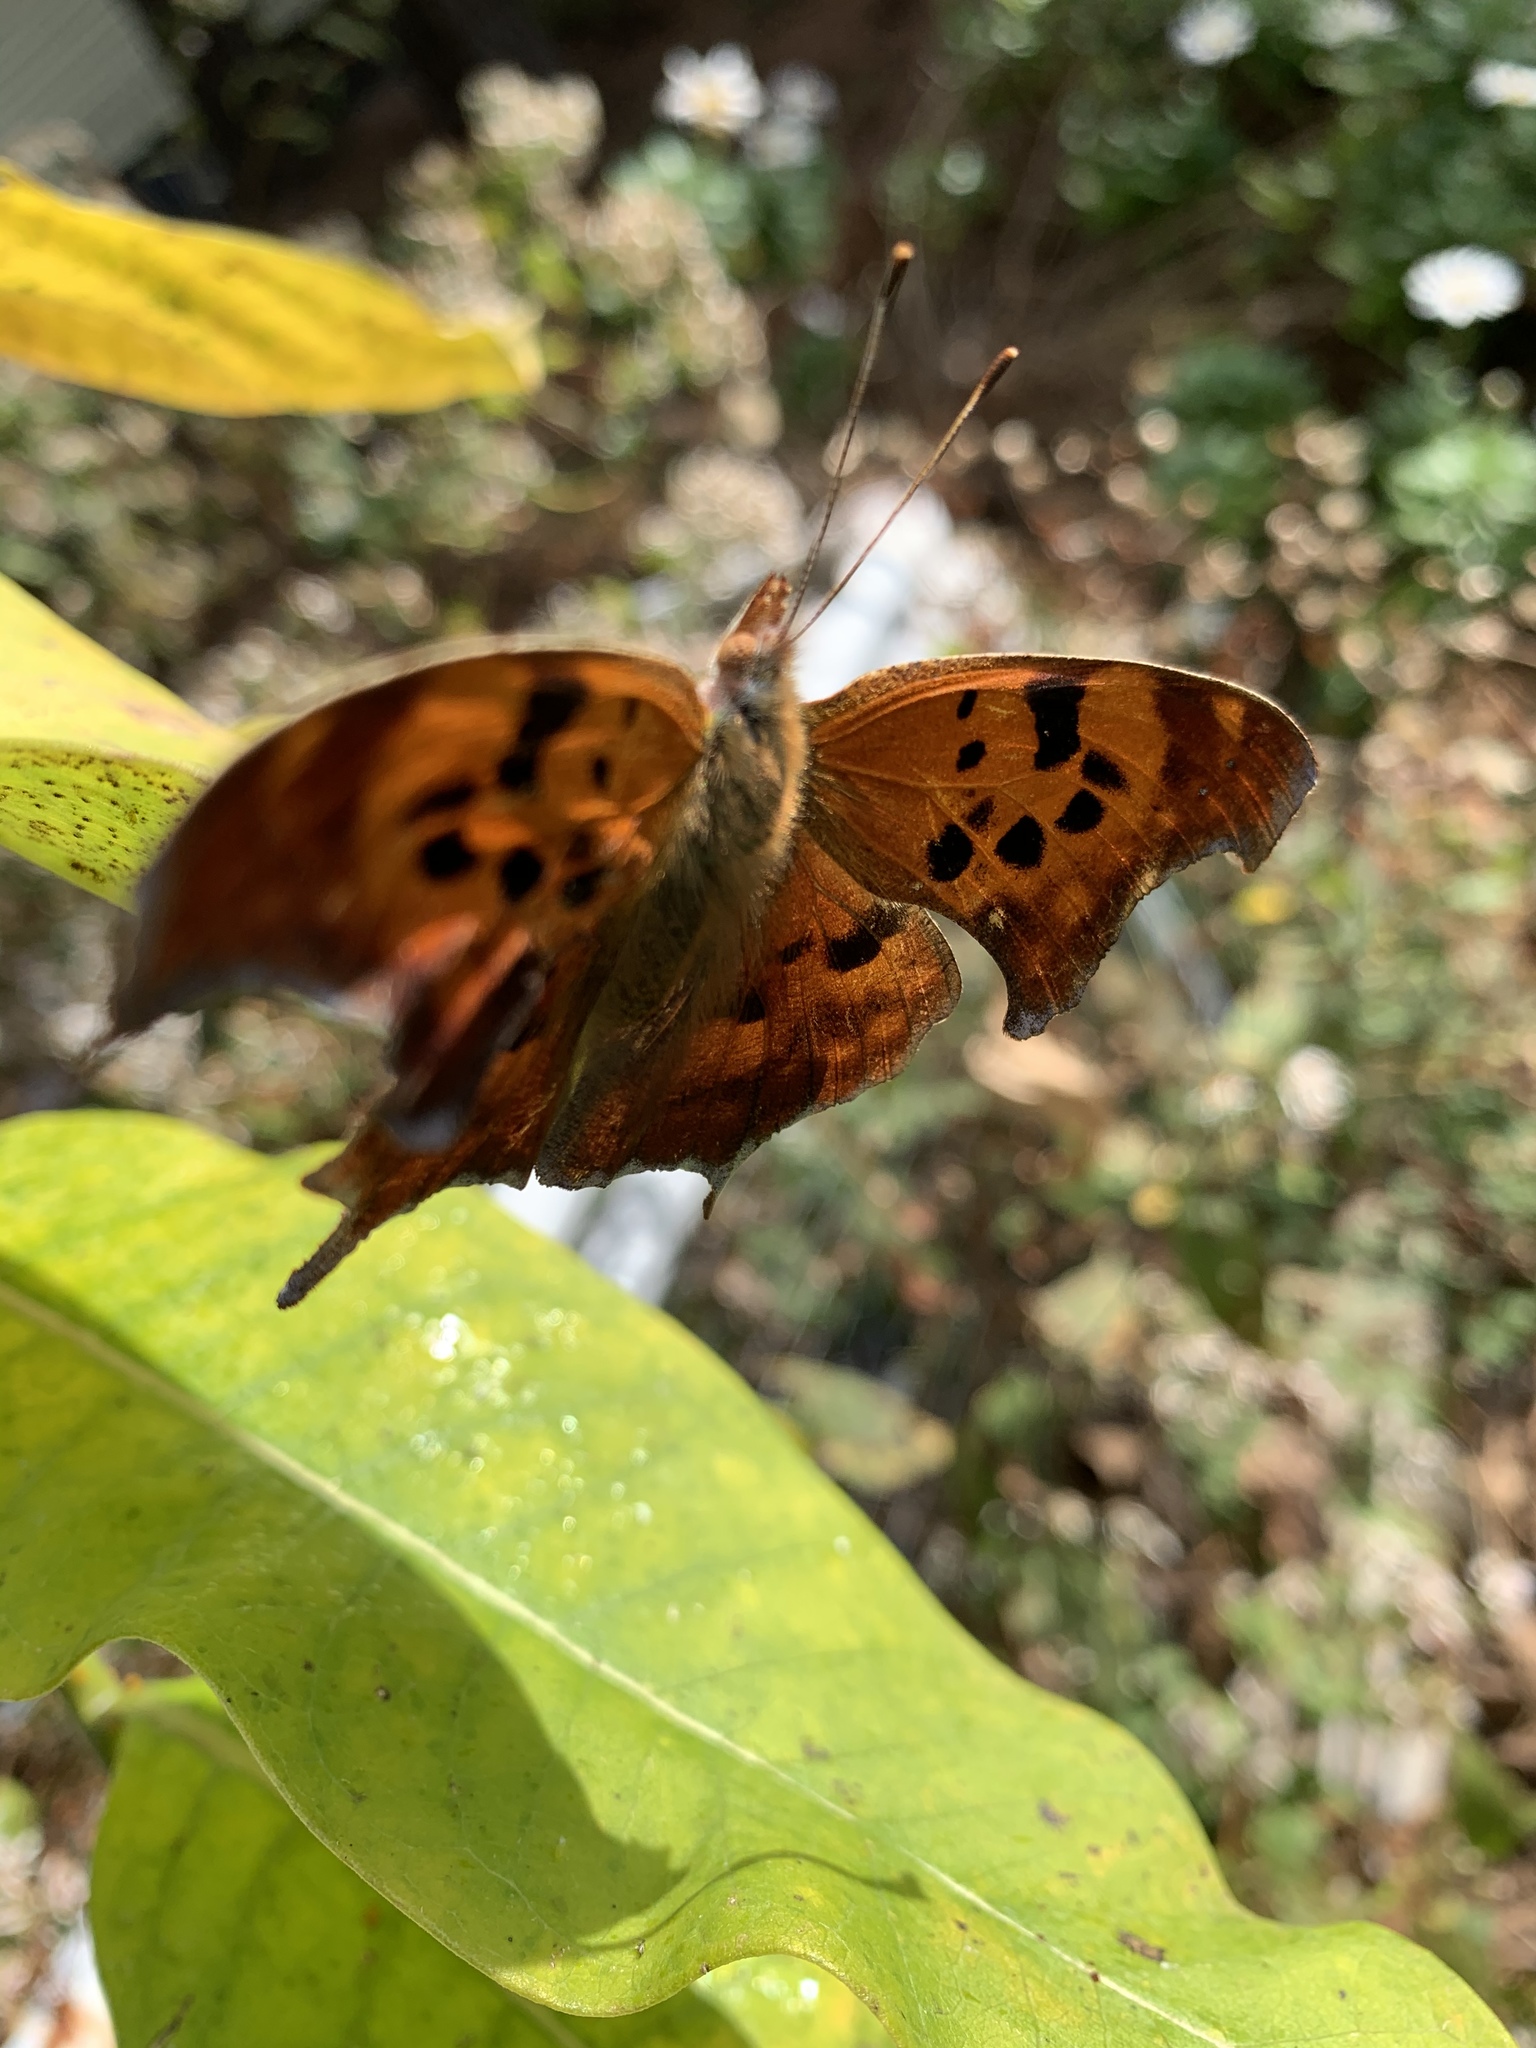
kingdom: Animalia
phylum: Arthropoda
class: Insecta
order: Lepidoptera
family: Nymphalidae
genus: Polygonia
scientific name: Polygonia interrogationis
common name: Question mark
